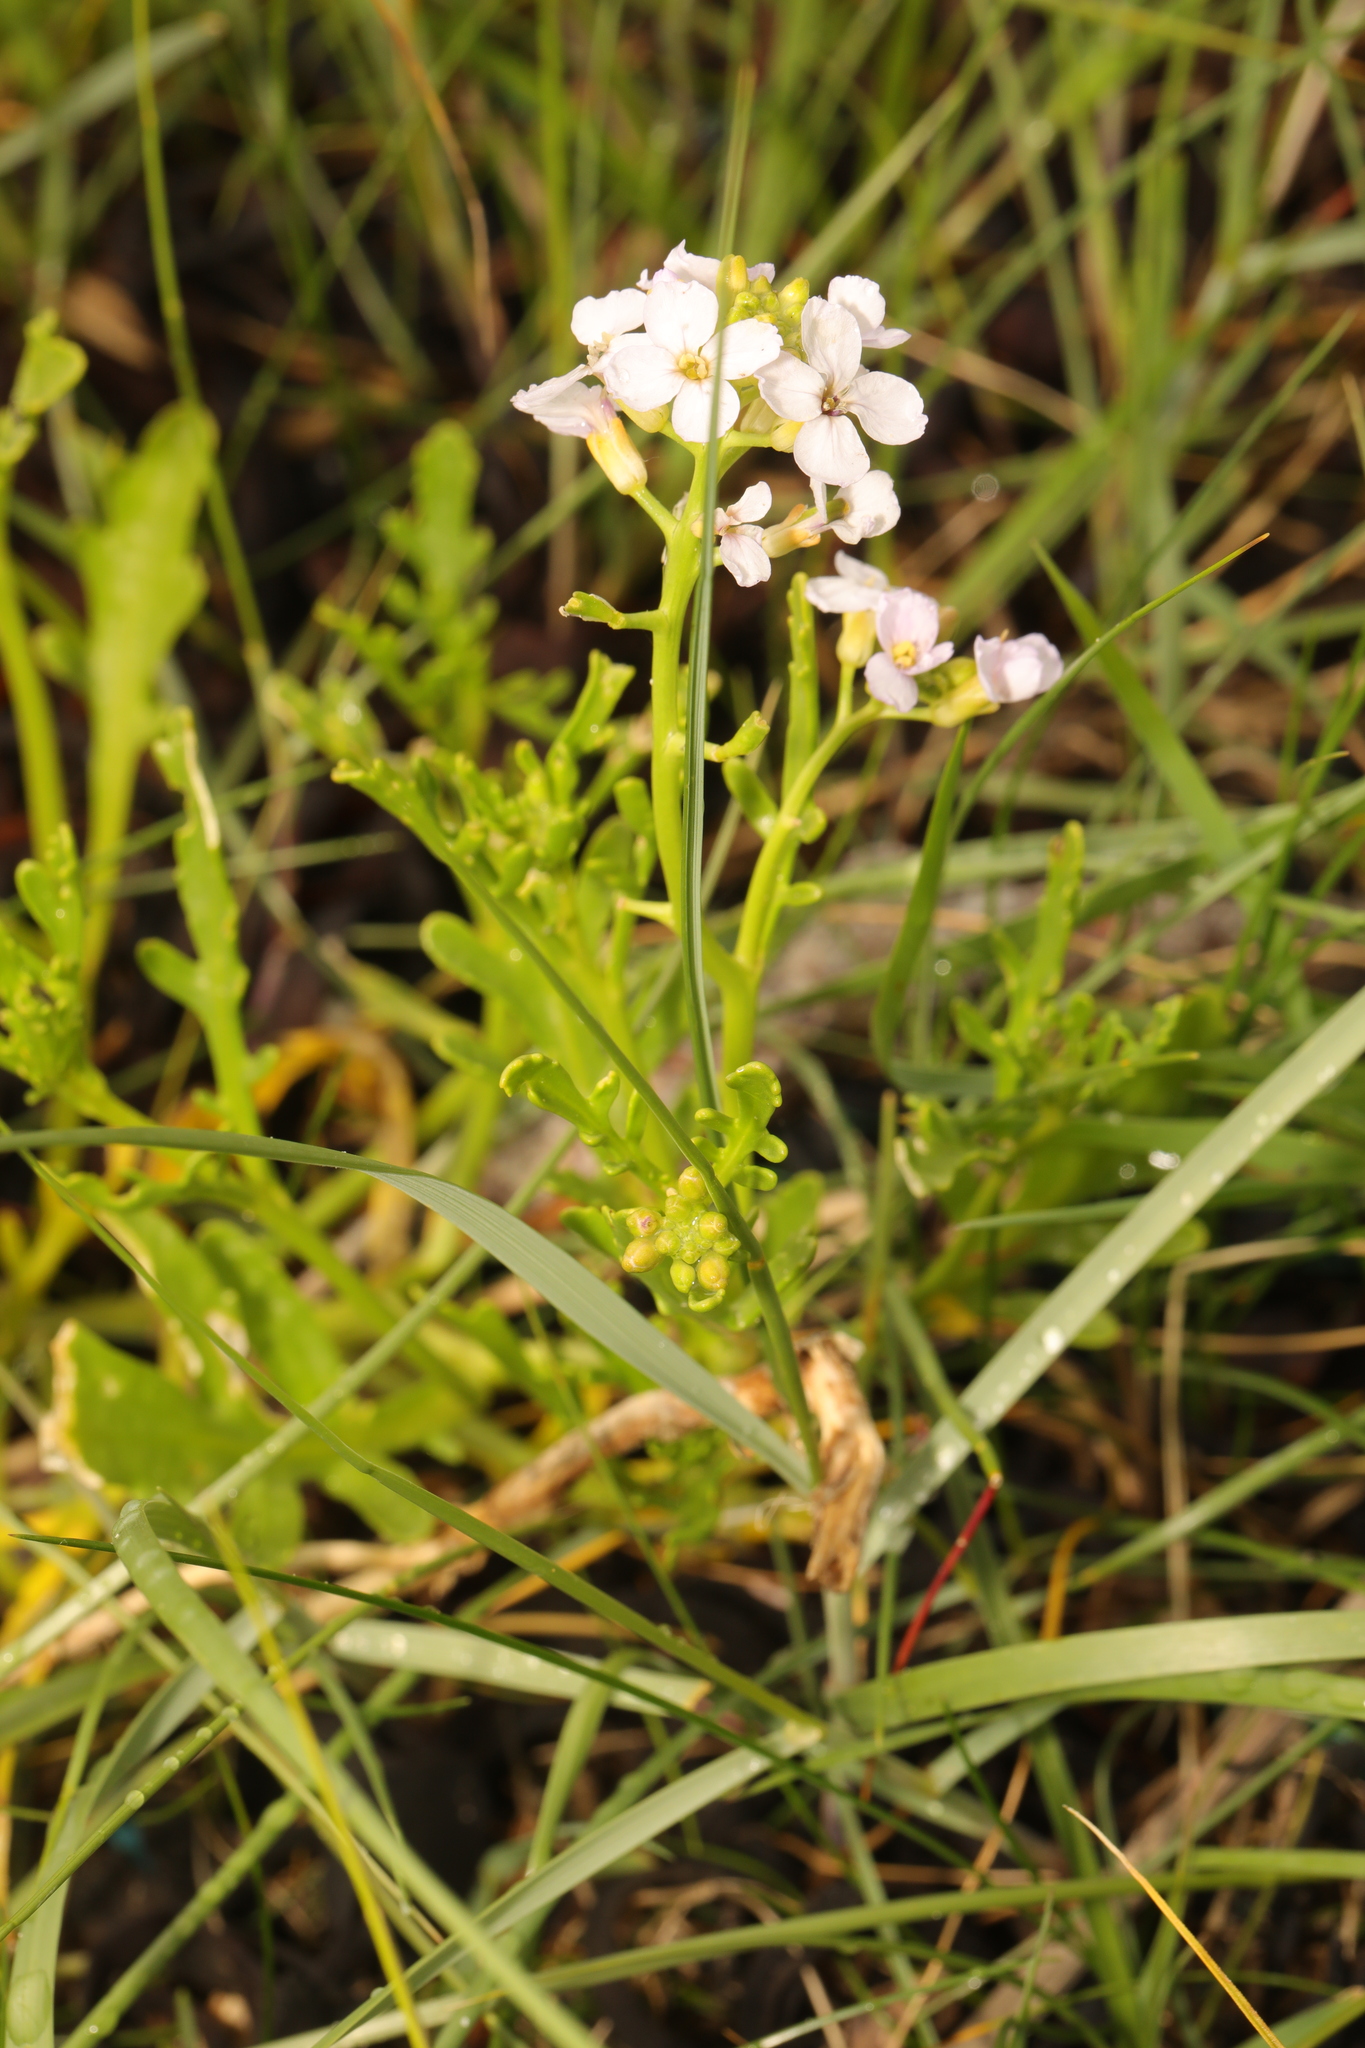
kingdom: Plantae
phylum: Tracheophyta
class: Magnoliopsida
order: Brassicales
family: Brassicaceae
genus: Cakile
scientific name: Cakile maritima
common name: Sea rocket
